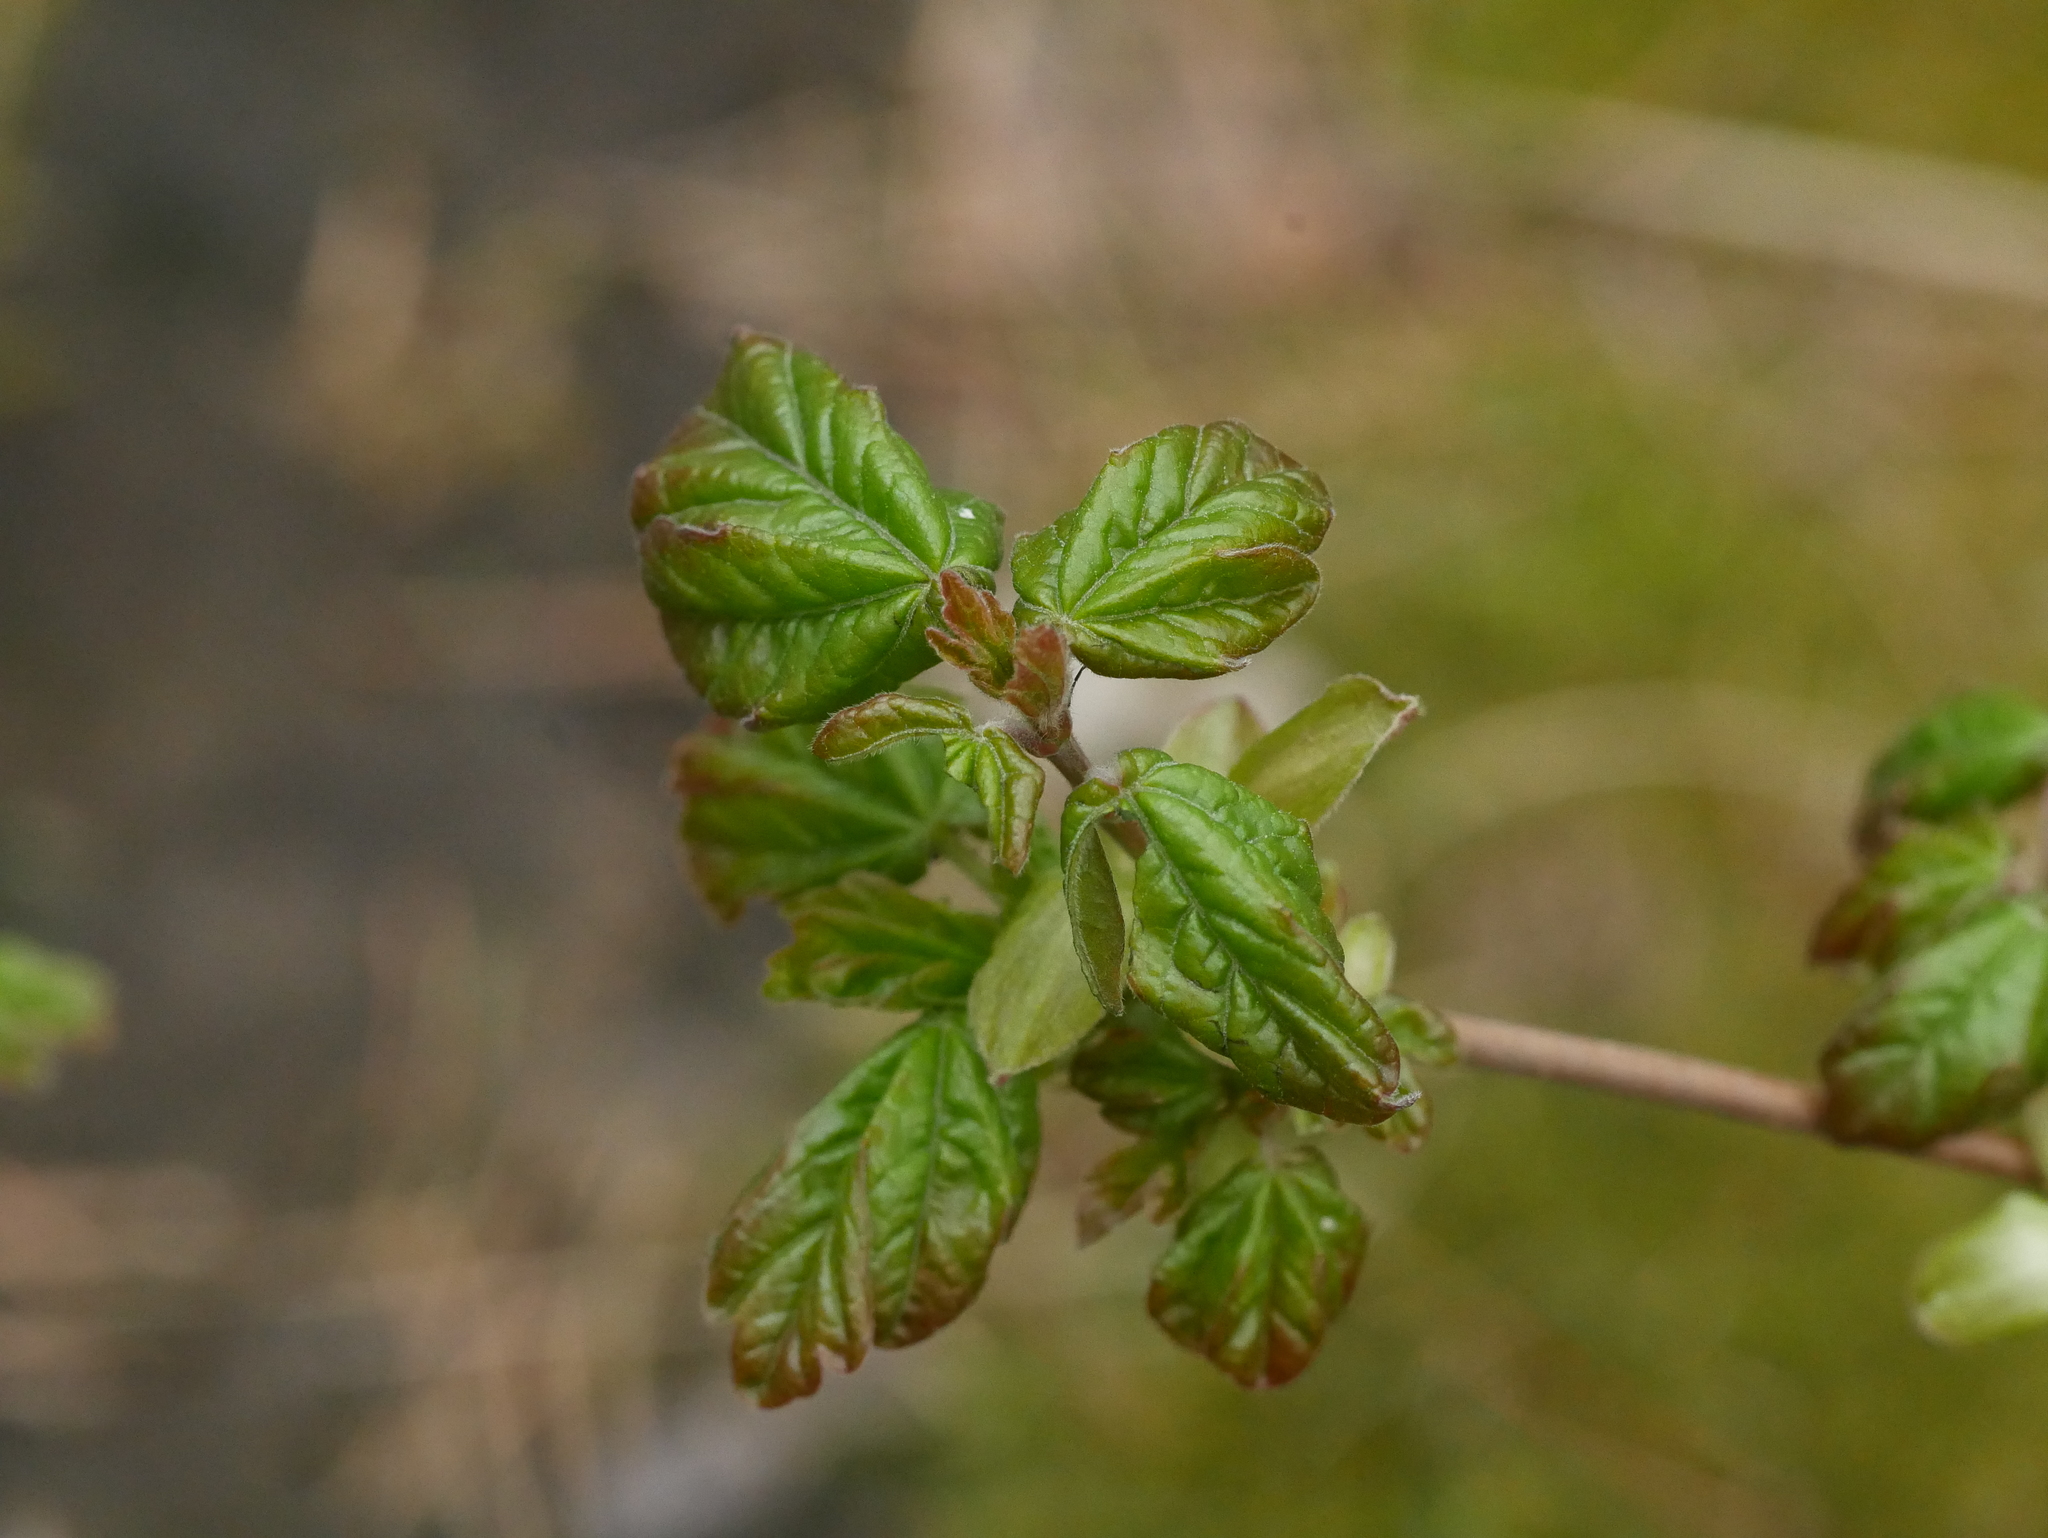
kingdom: Plantae
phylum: Tracheophyta
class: Magnoliopsida
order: Sapindales
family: Sapindaceae
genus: Acer
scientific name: Acer campestre
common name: Field maple
